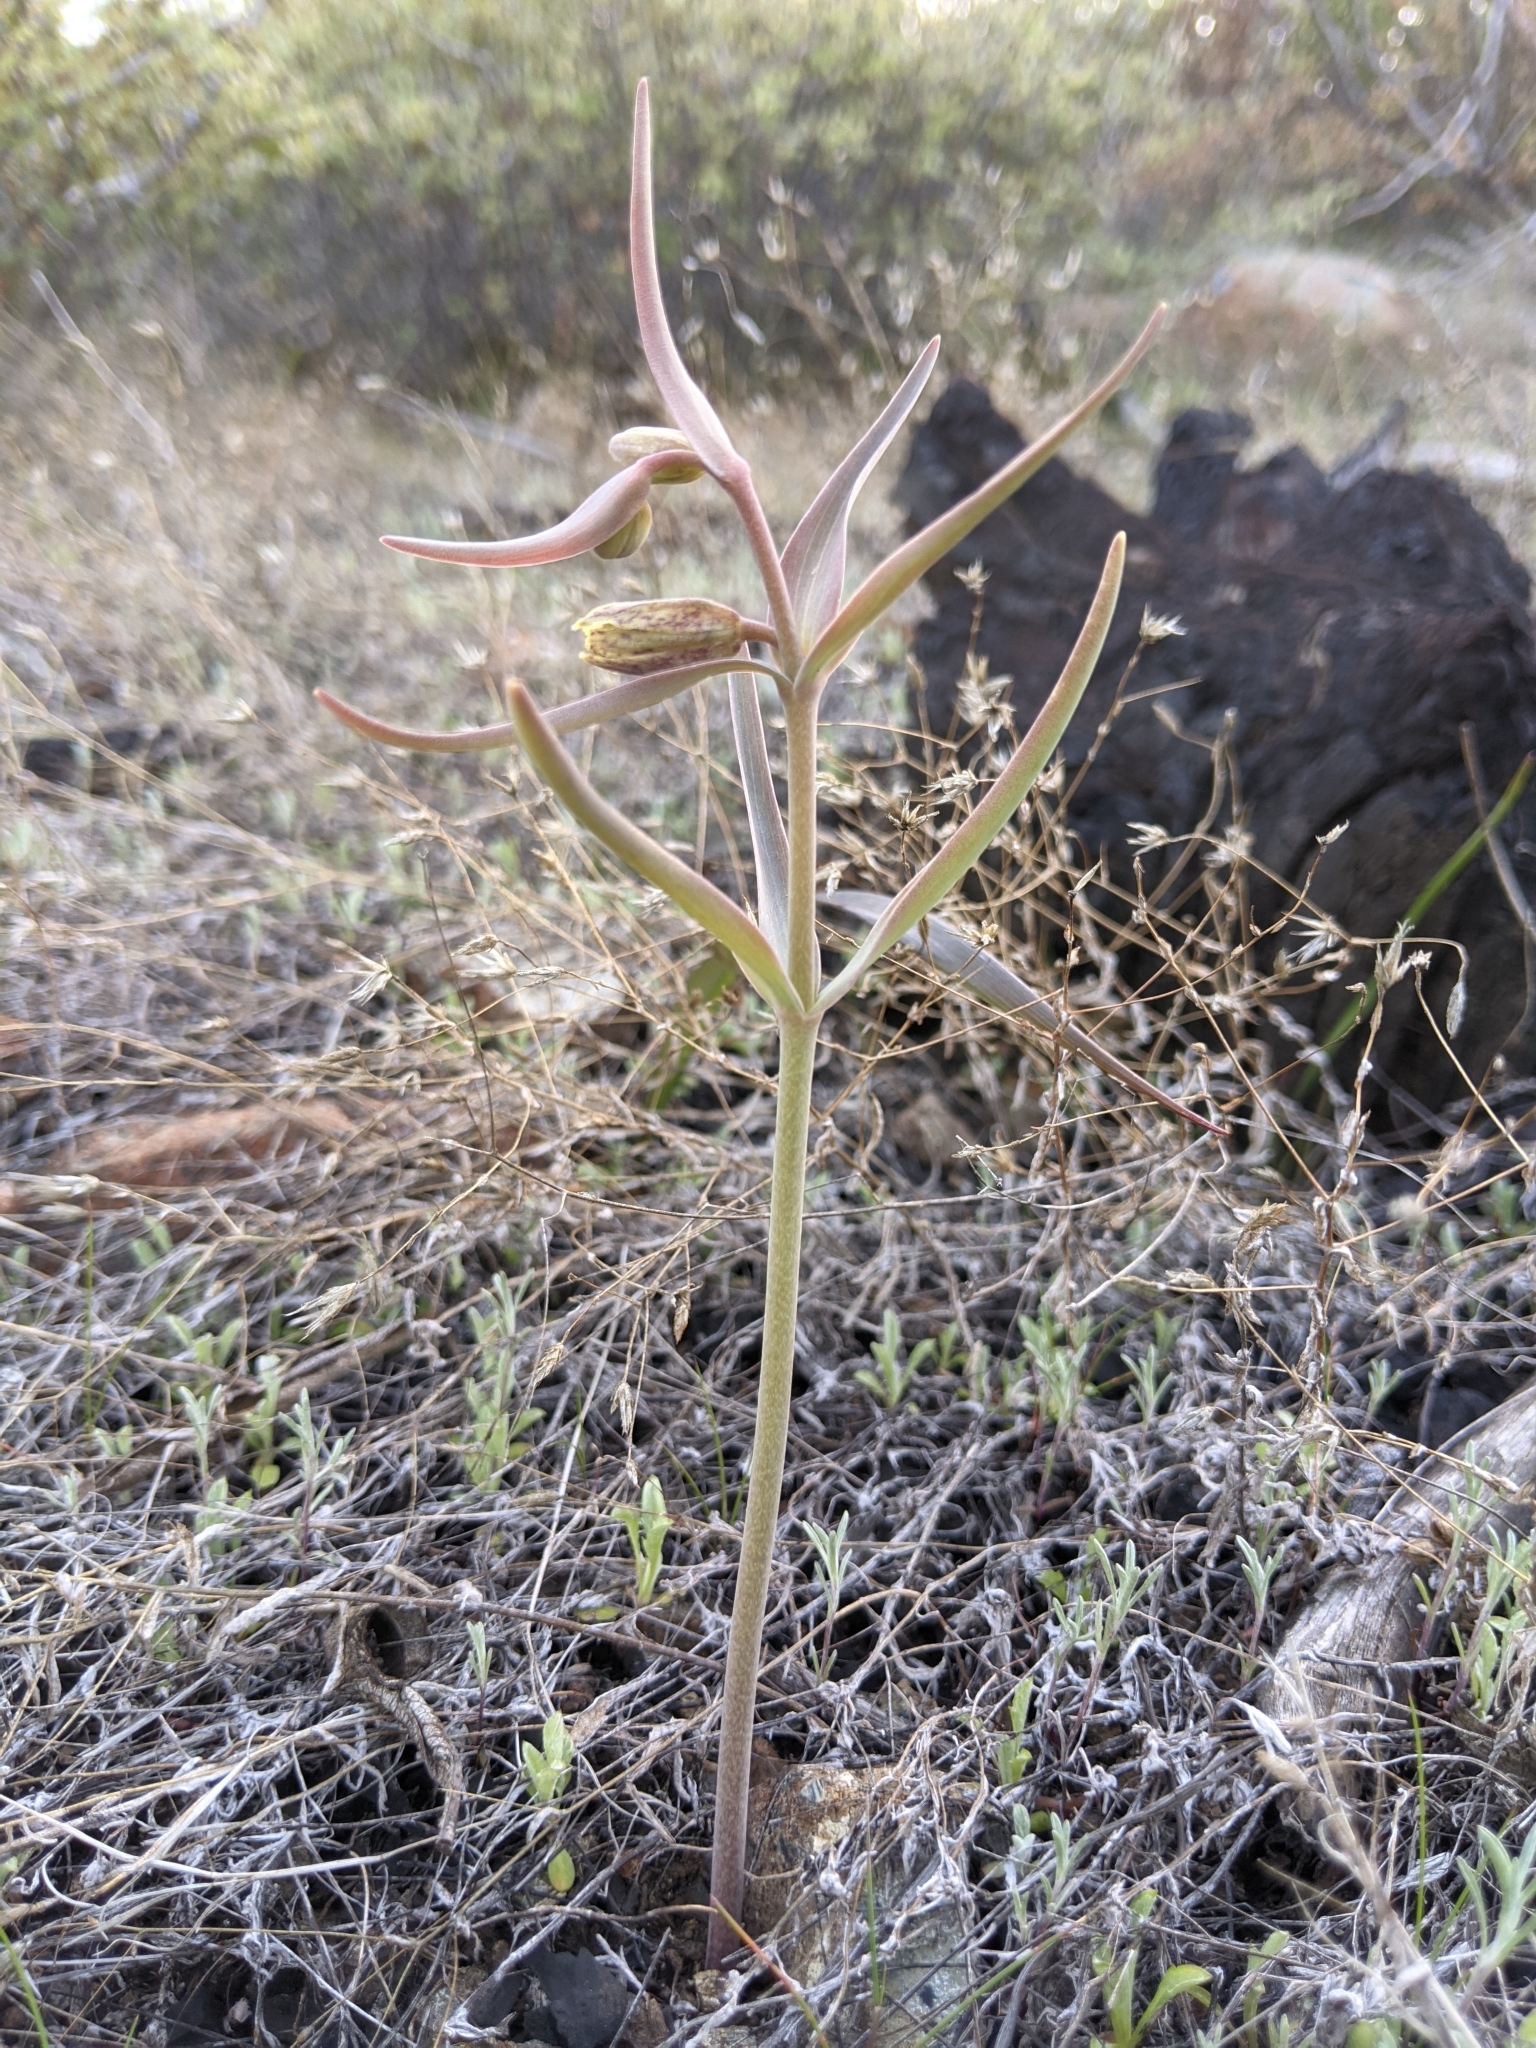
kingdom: Plantae
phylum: Tracheophyta
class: Liliopsida
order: Liliales
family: Liliaceae
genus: Fritillaria
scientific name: Fritillaria affinis
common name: Ojai fritillary
